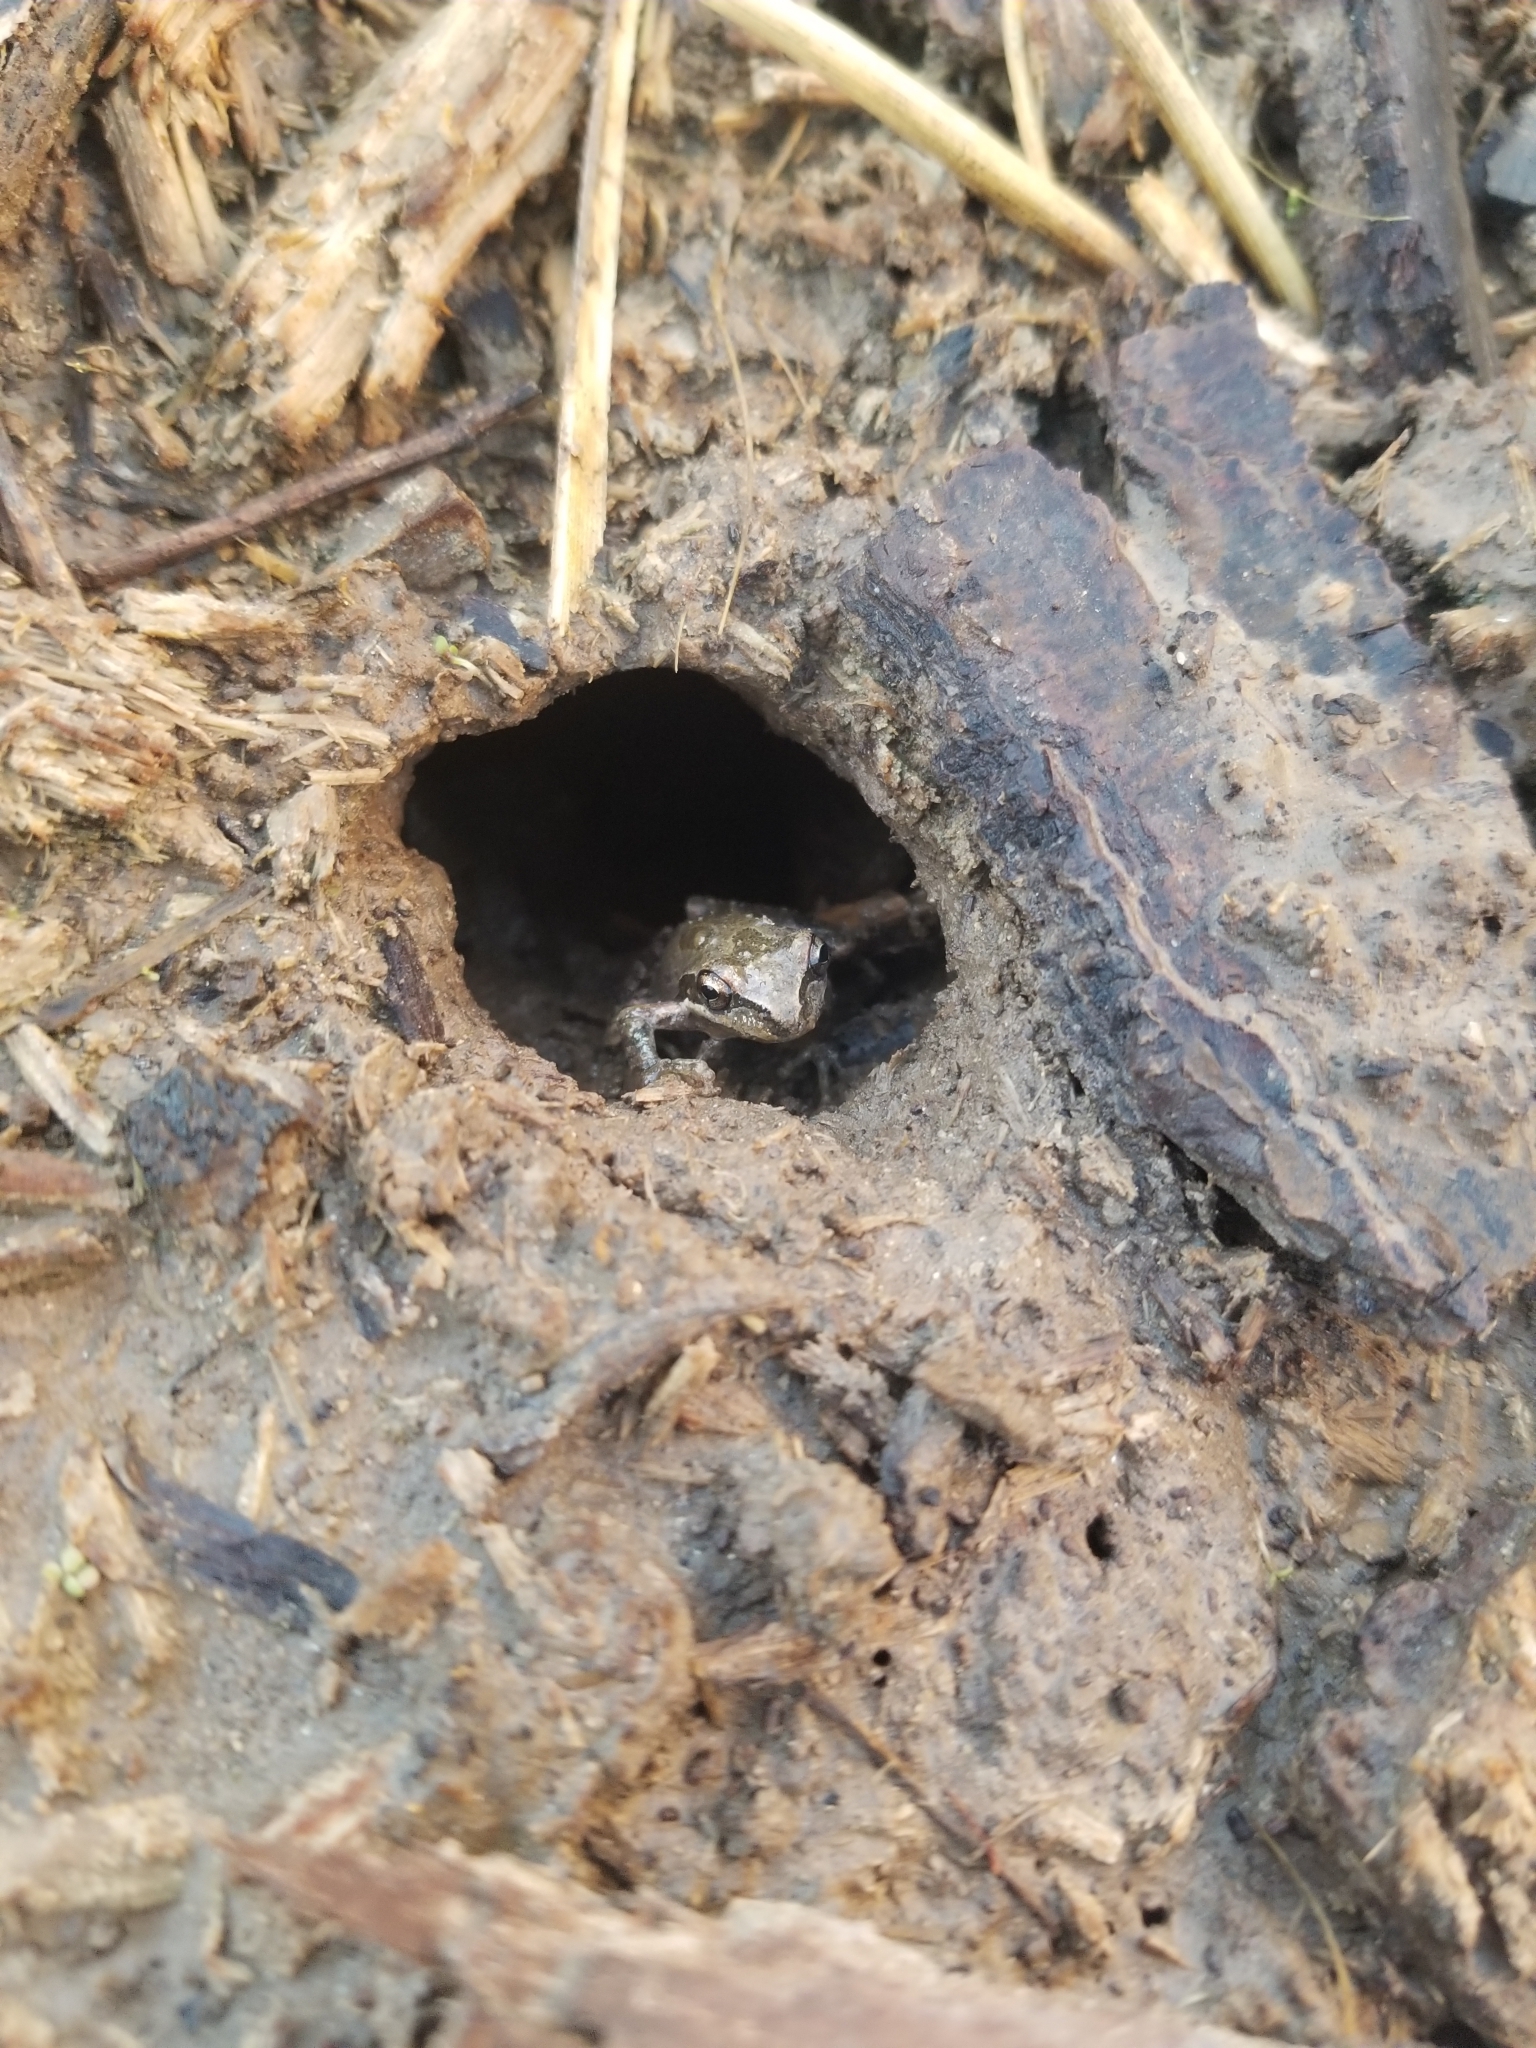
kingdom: Animalia
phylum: Chordata
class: Amphibia
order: Anura
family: Hylidae
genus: Pseudacris
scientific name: Pseudacris regilla
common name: Pacific chorus frog
